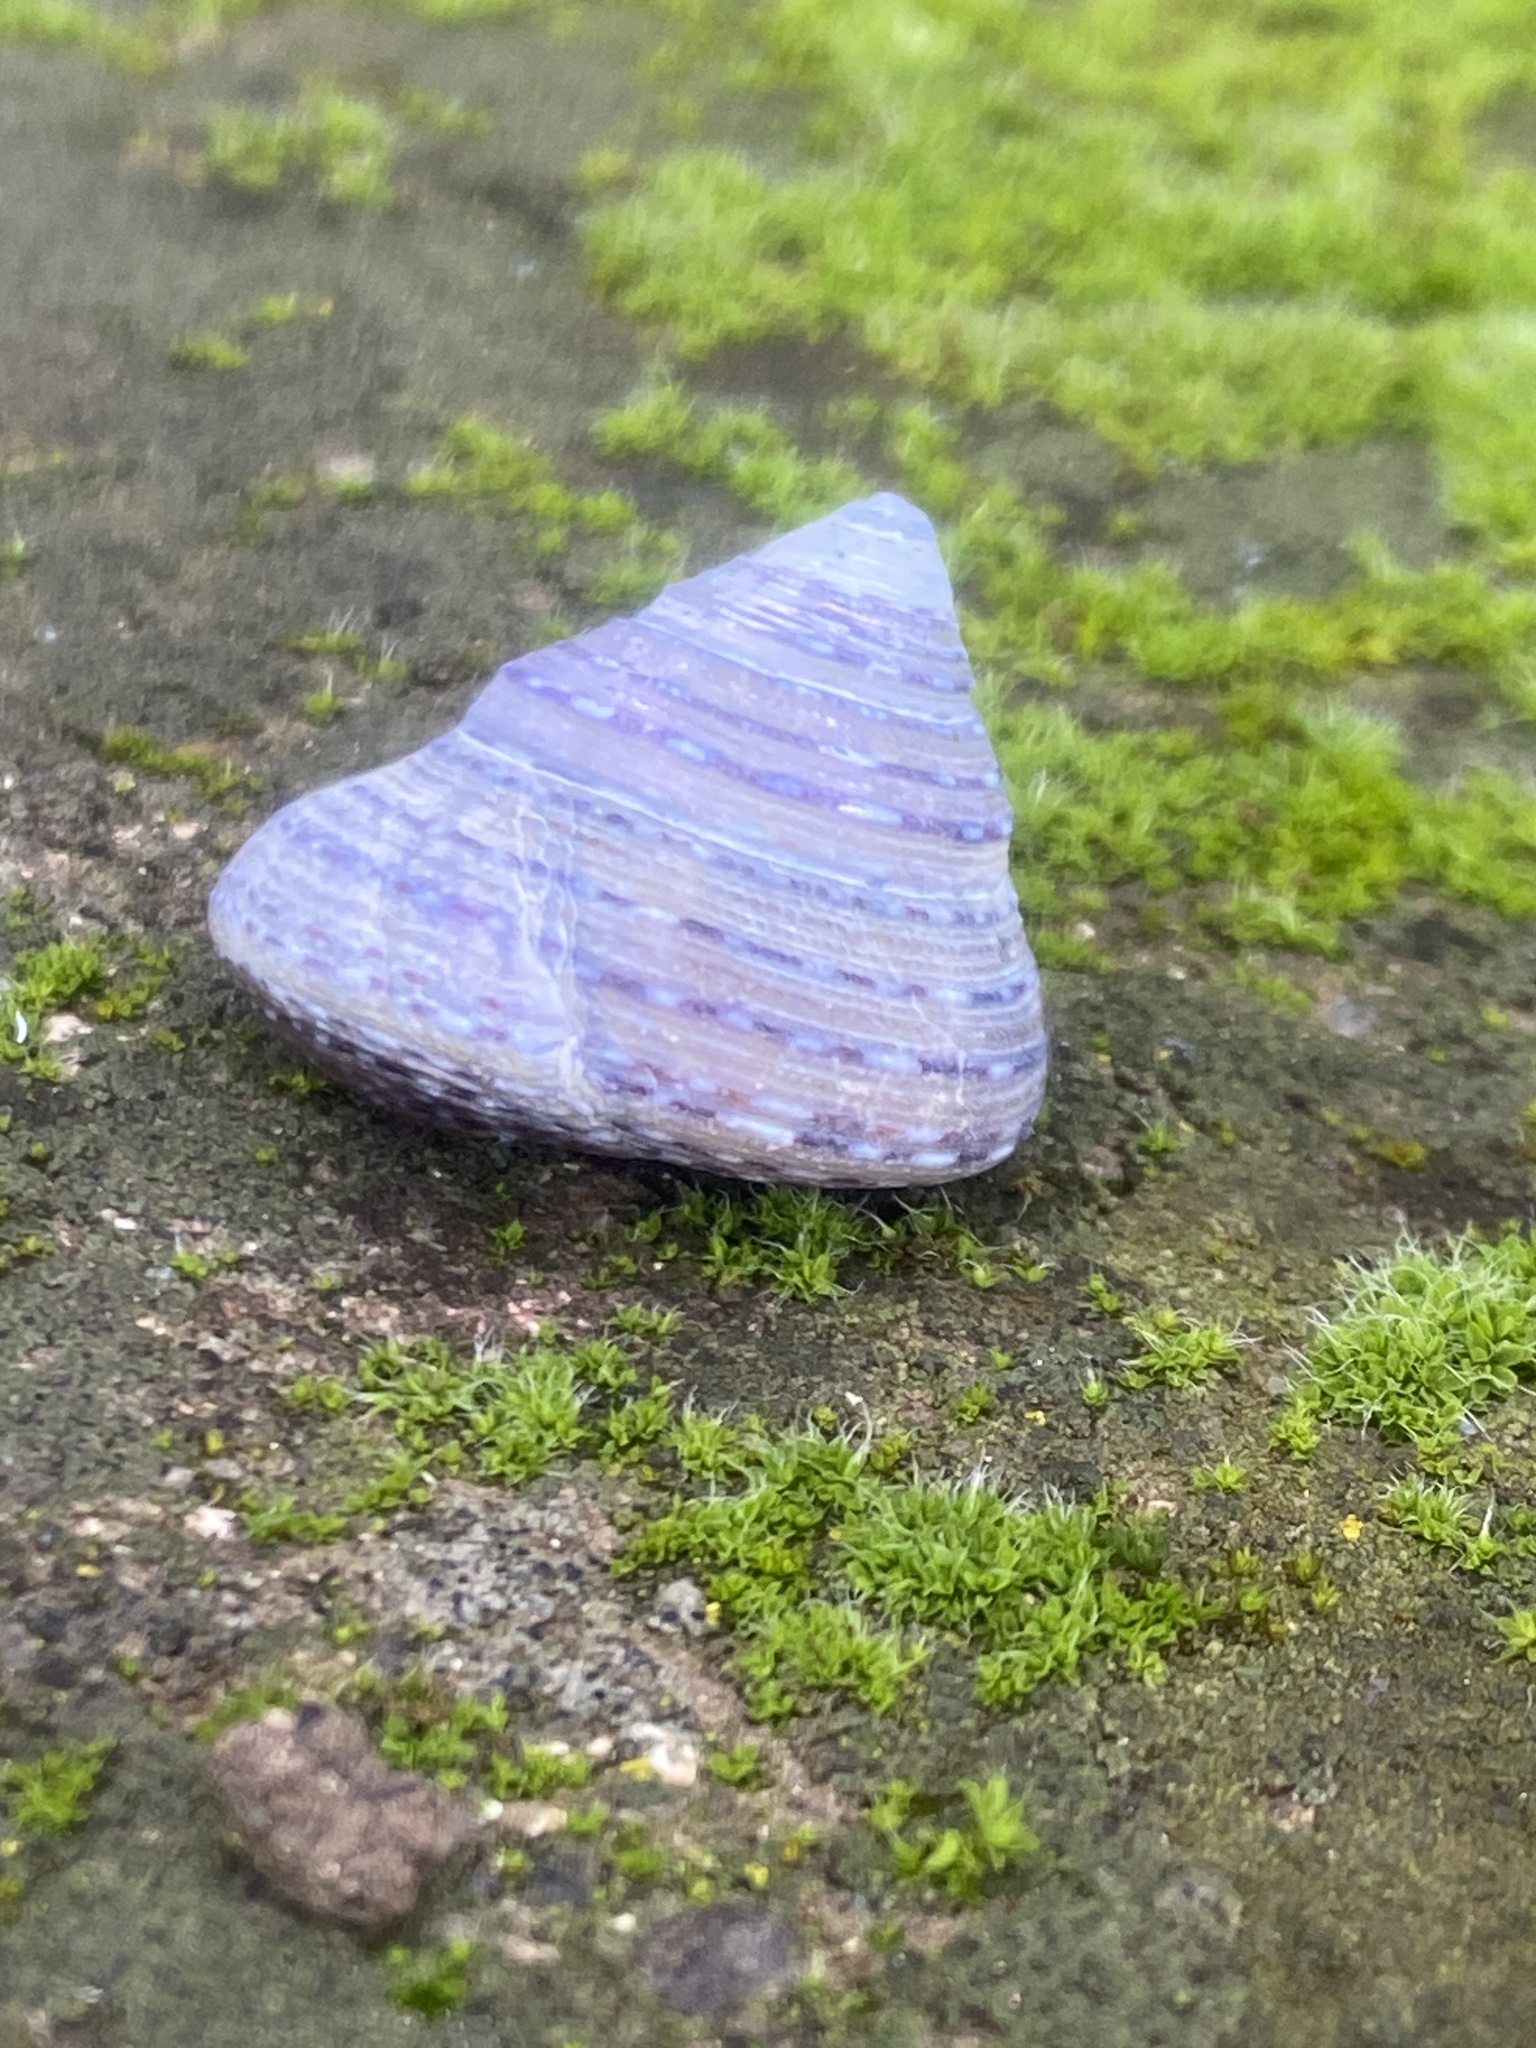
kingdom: Animalia
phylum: Mollusca
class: Gastropoda
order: Trochida
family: Calliostomatidae
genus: Calliostoma
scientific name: Calliostoma tricolor
